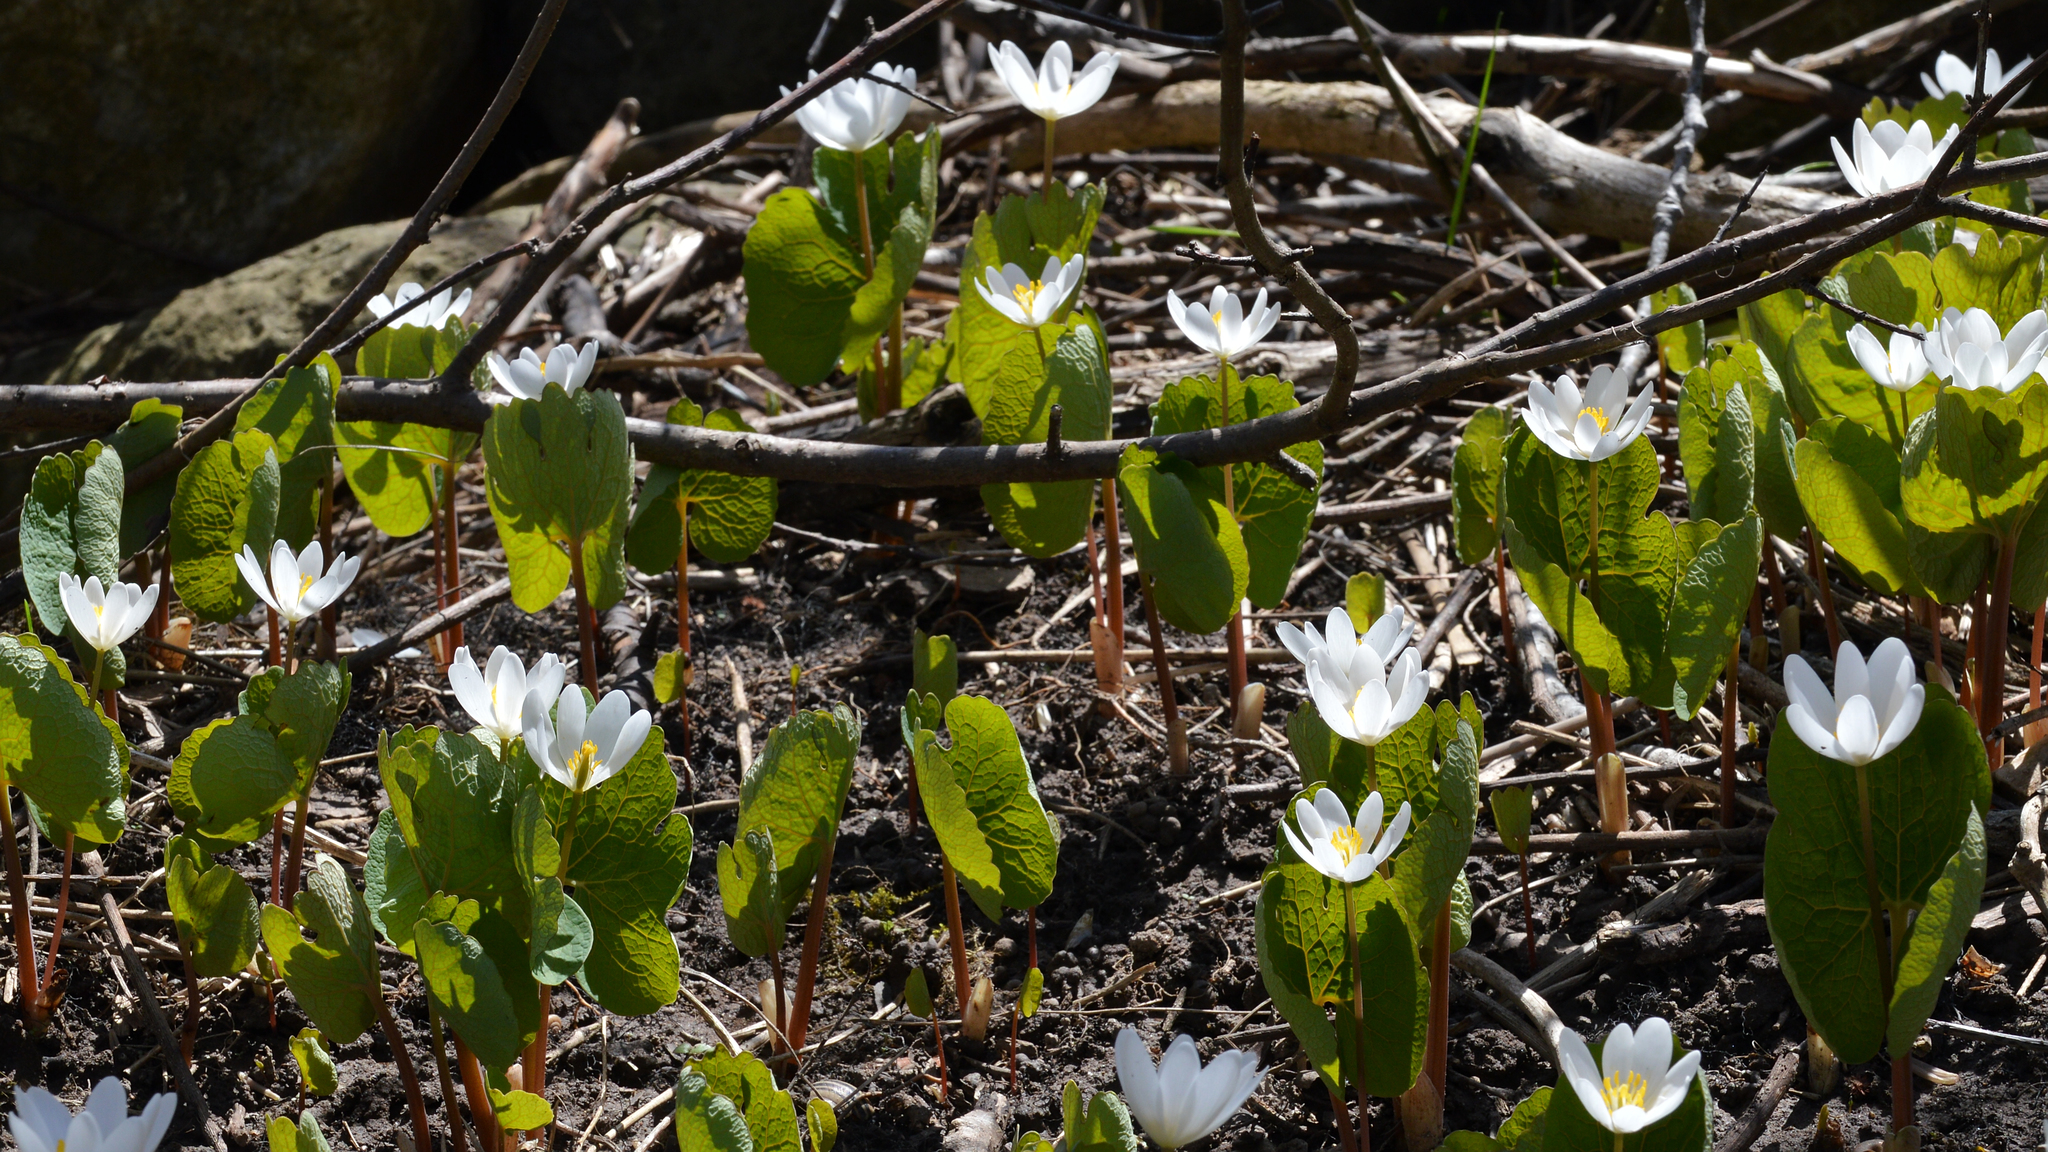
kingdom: Plantae
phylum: Tracheophyta
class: Magnoliopsida
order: Ranunculales
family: Papaveraceae
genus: Sanguinaria
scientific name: Sanguinaria canadensis
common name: Bloodroot
